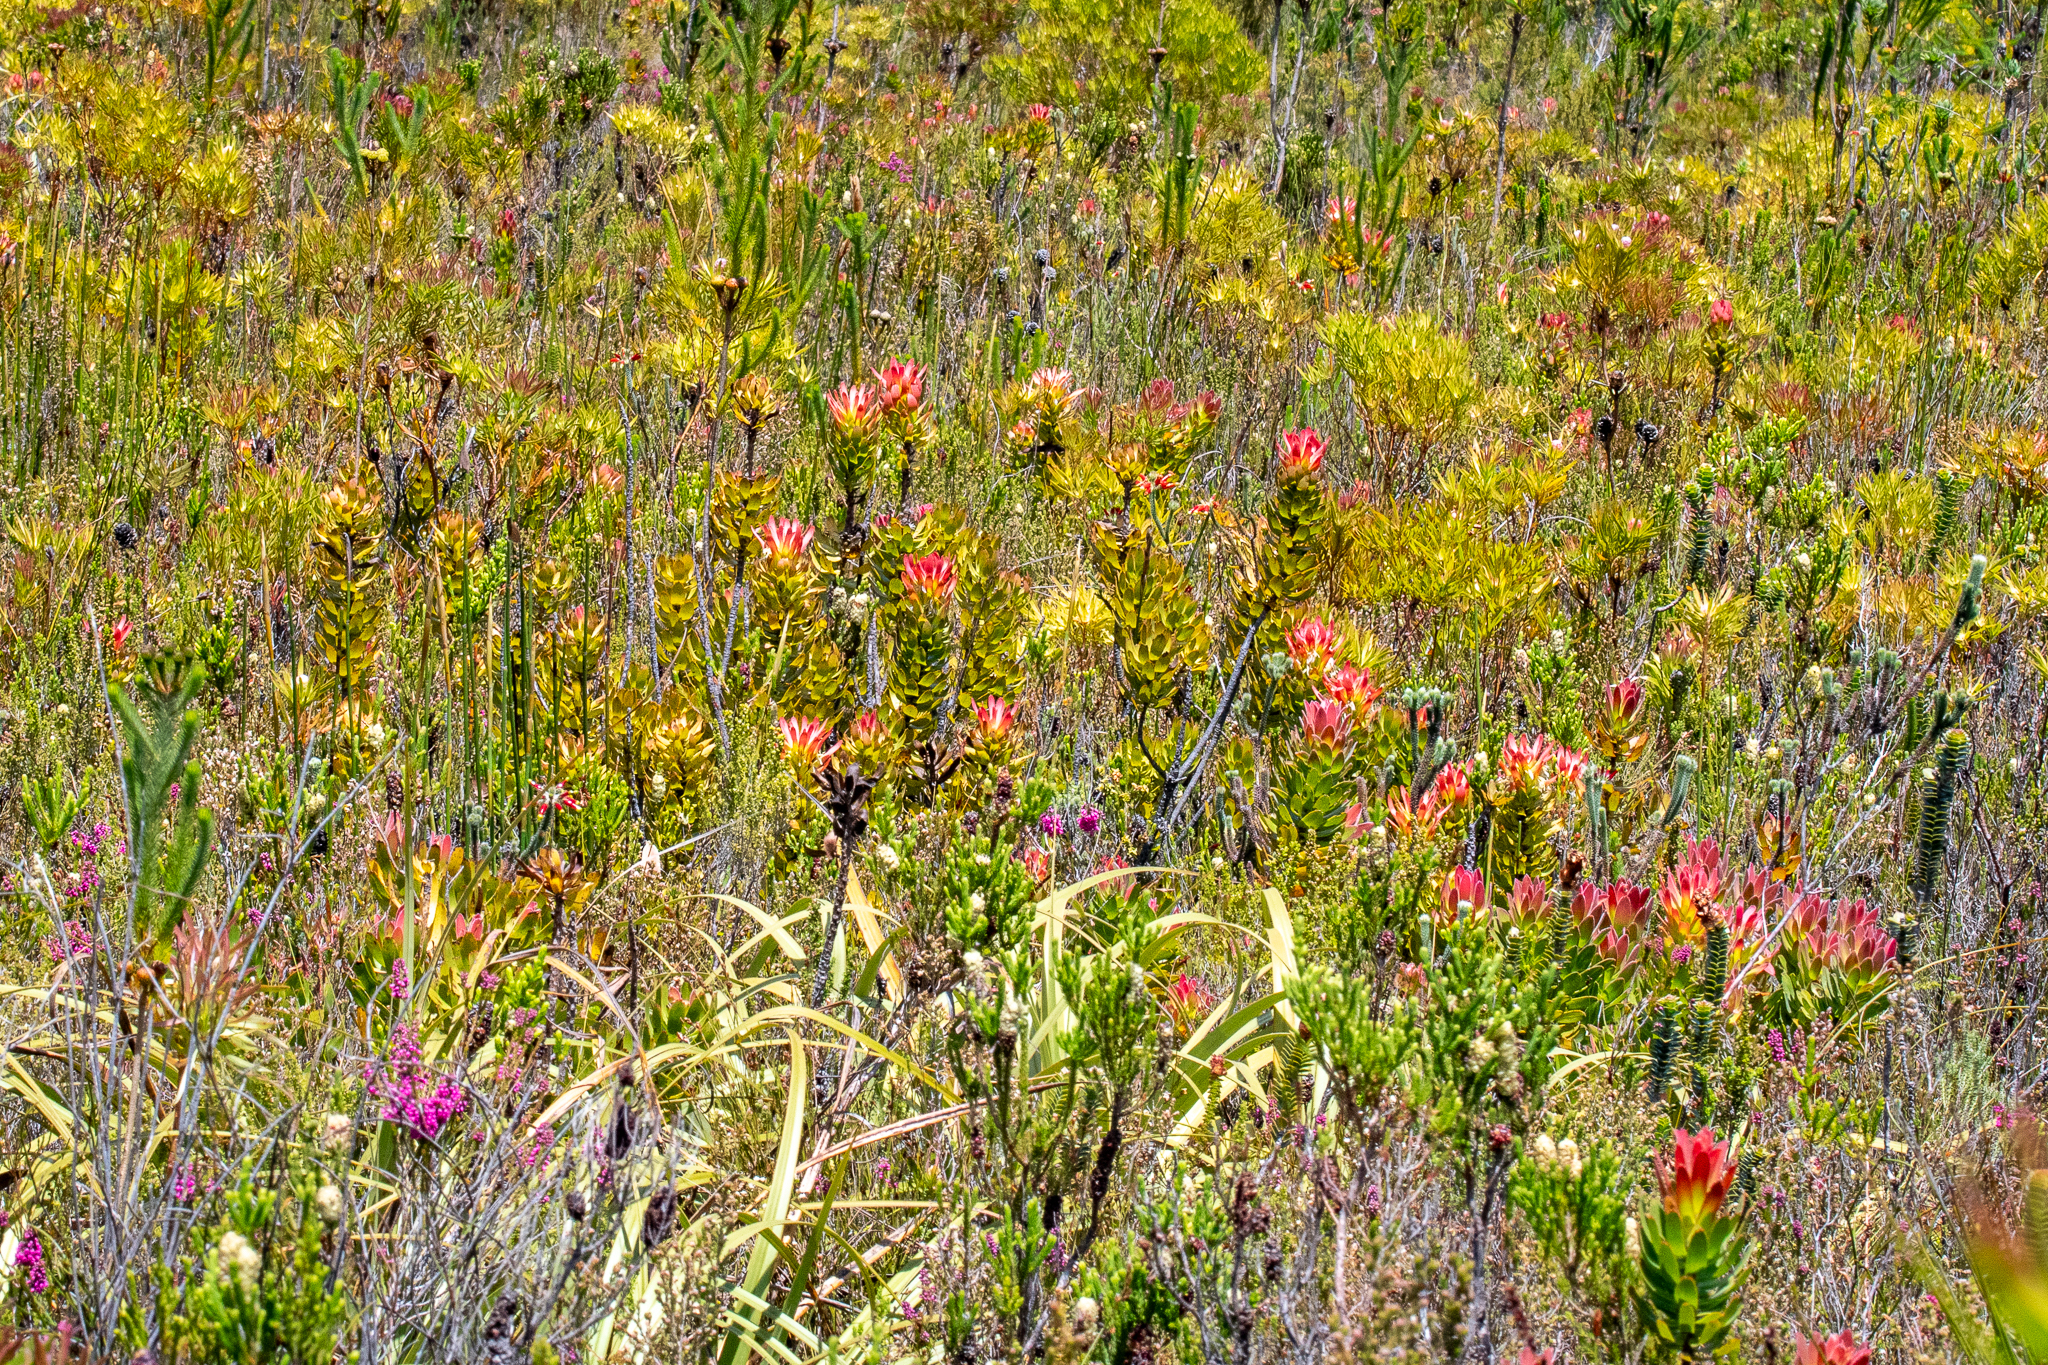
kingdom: Plantae
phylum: Tracheophyta
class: Magnoliopsida
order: Proteales
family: Proteaceae
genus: Mimetes
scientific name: Mimetes cucullatus
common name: Common pagoda
